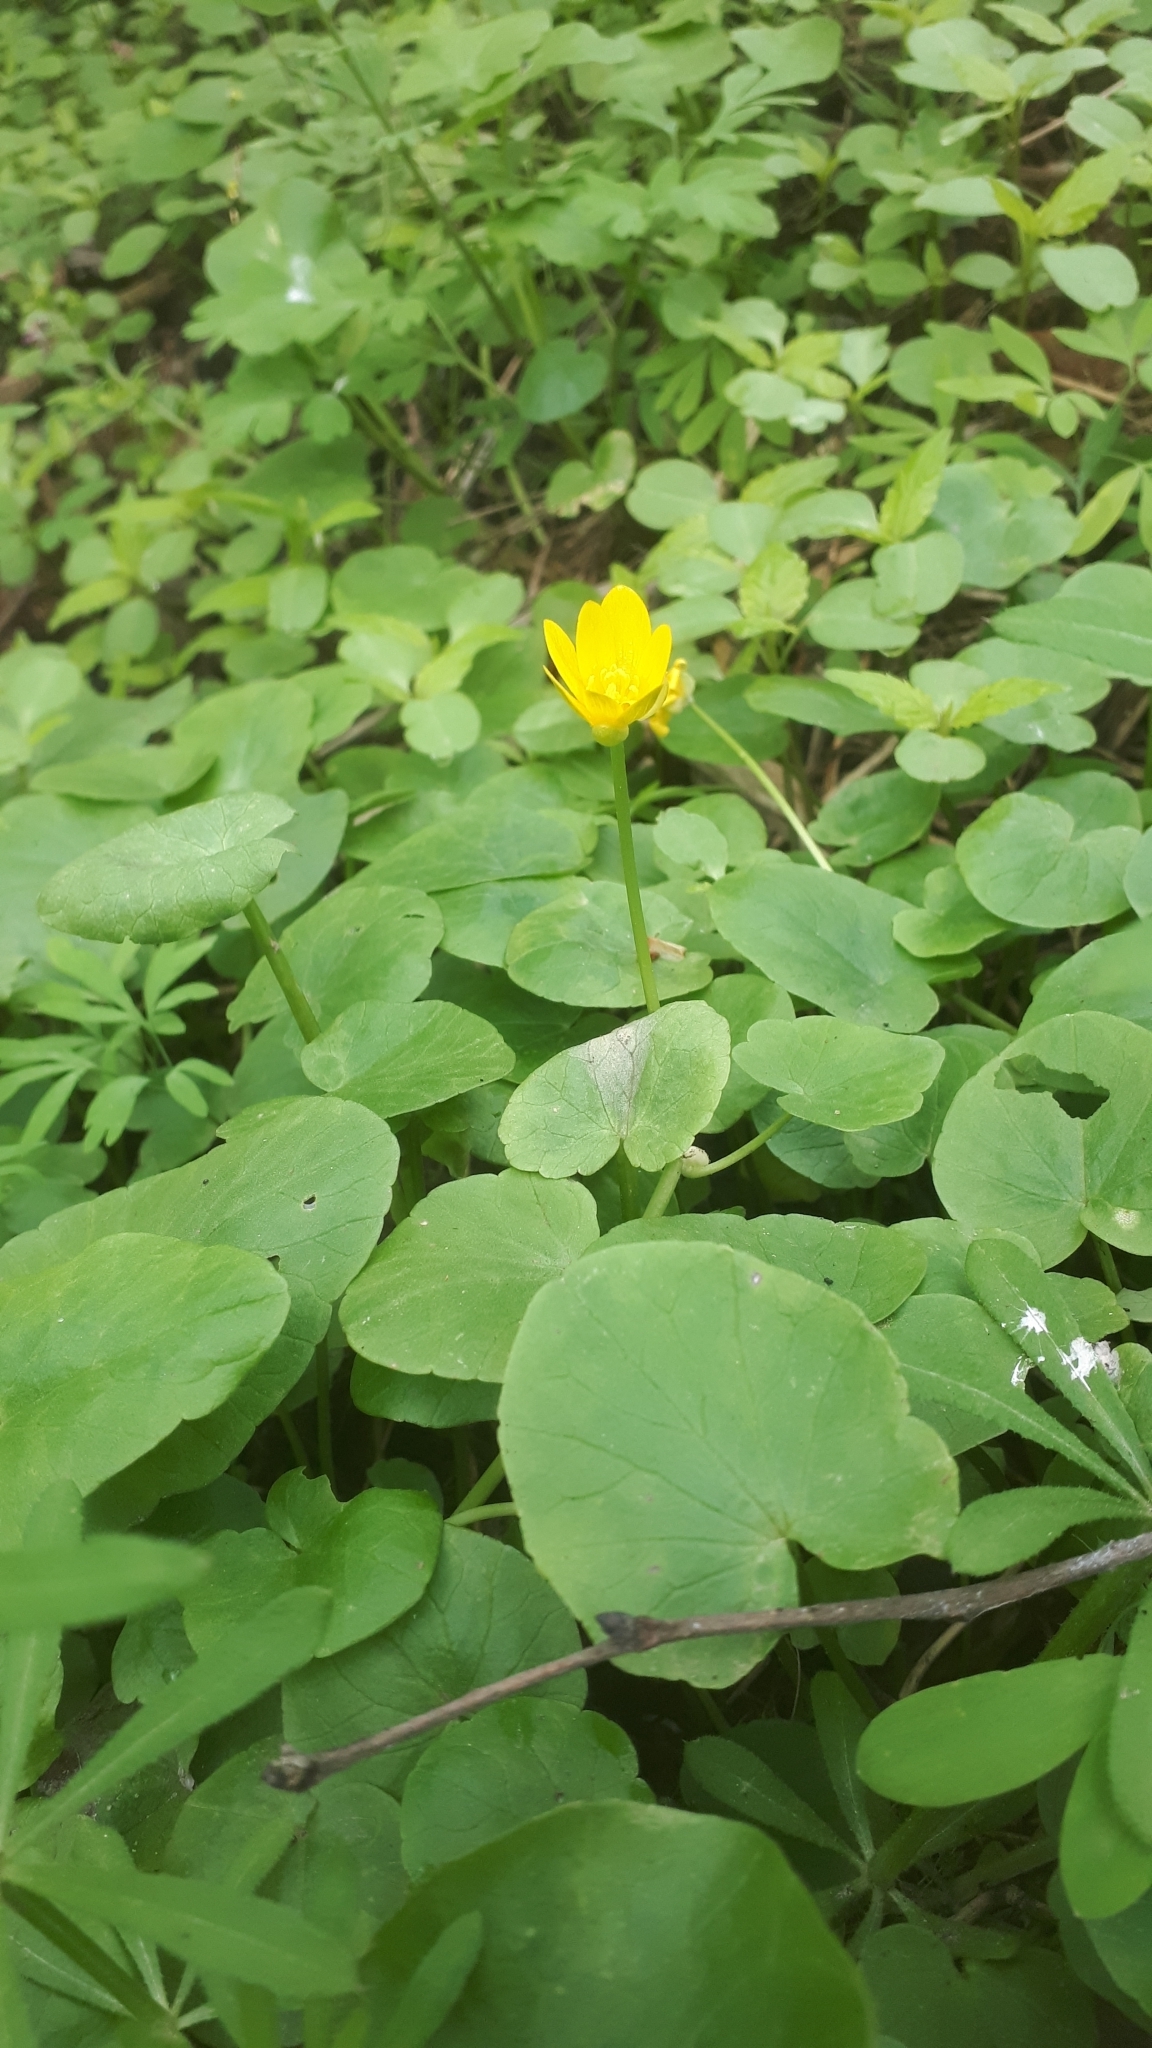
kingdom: Plantae
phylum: Tracheophyta
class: Magnoliopsida
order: Ranunculales
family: Ranunculaceae
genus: Ficaria
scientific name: Ficaria verna
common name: Lesser celandine
